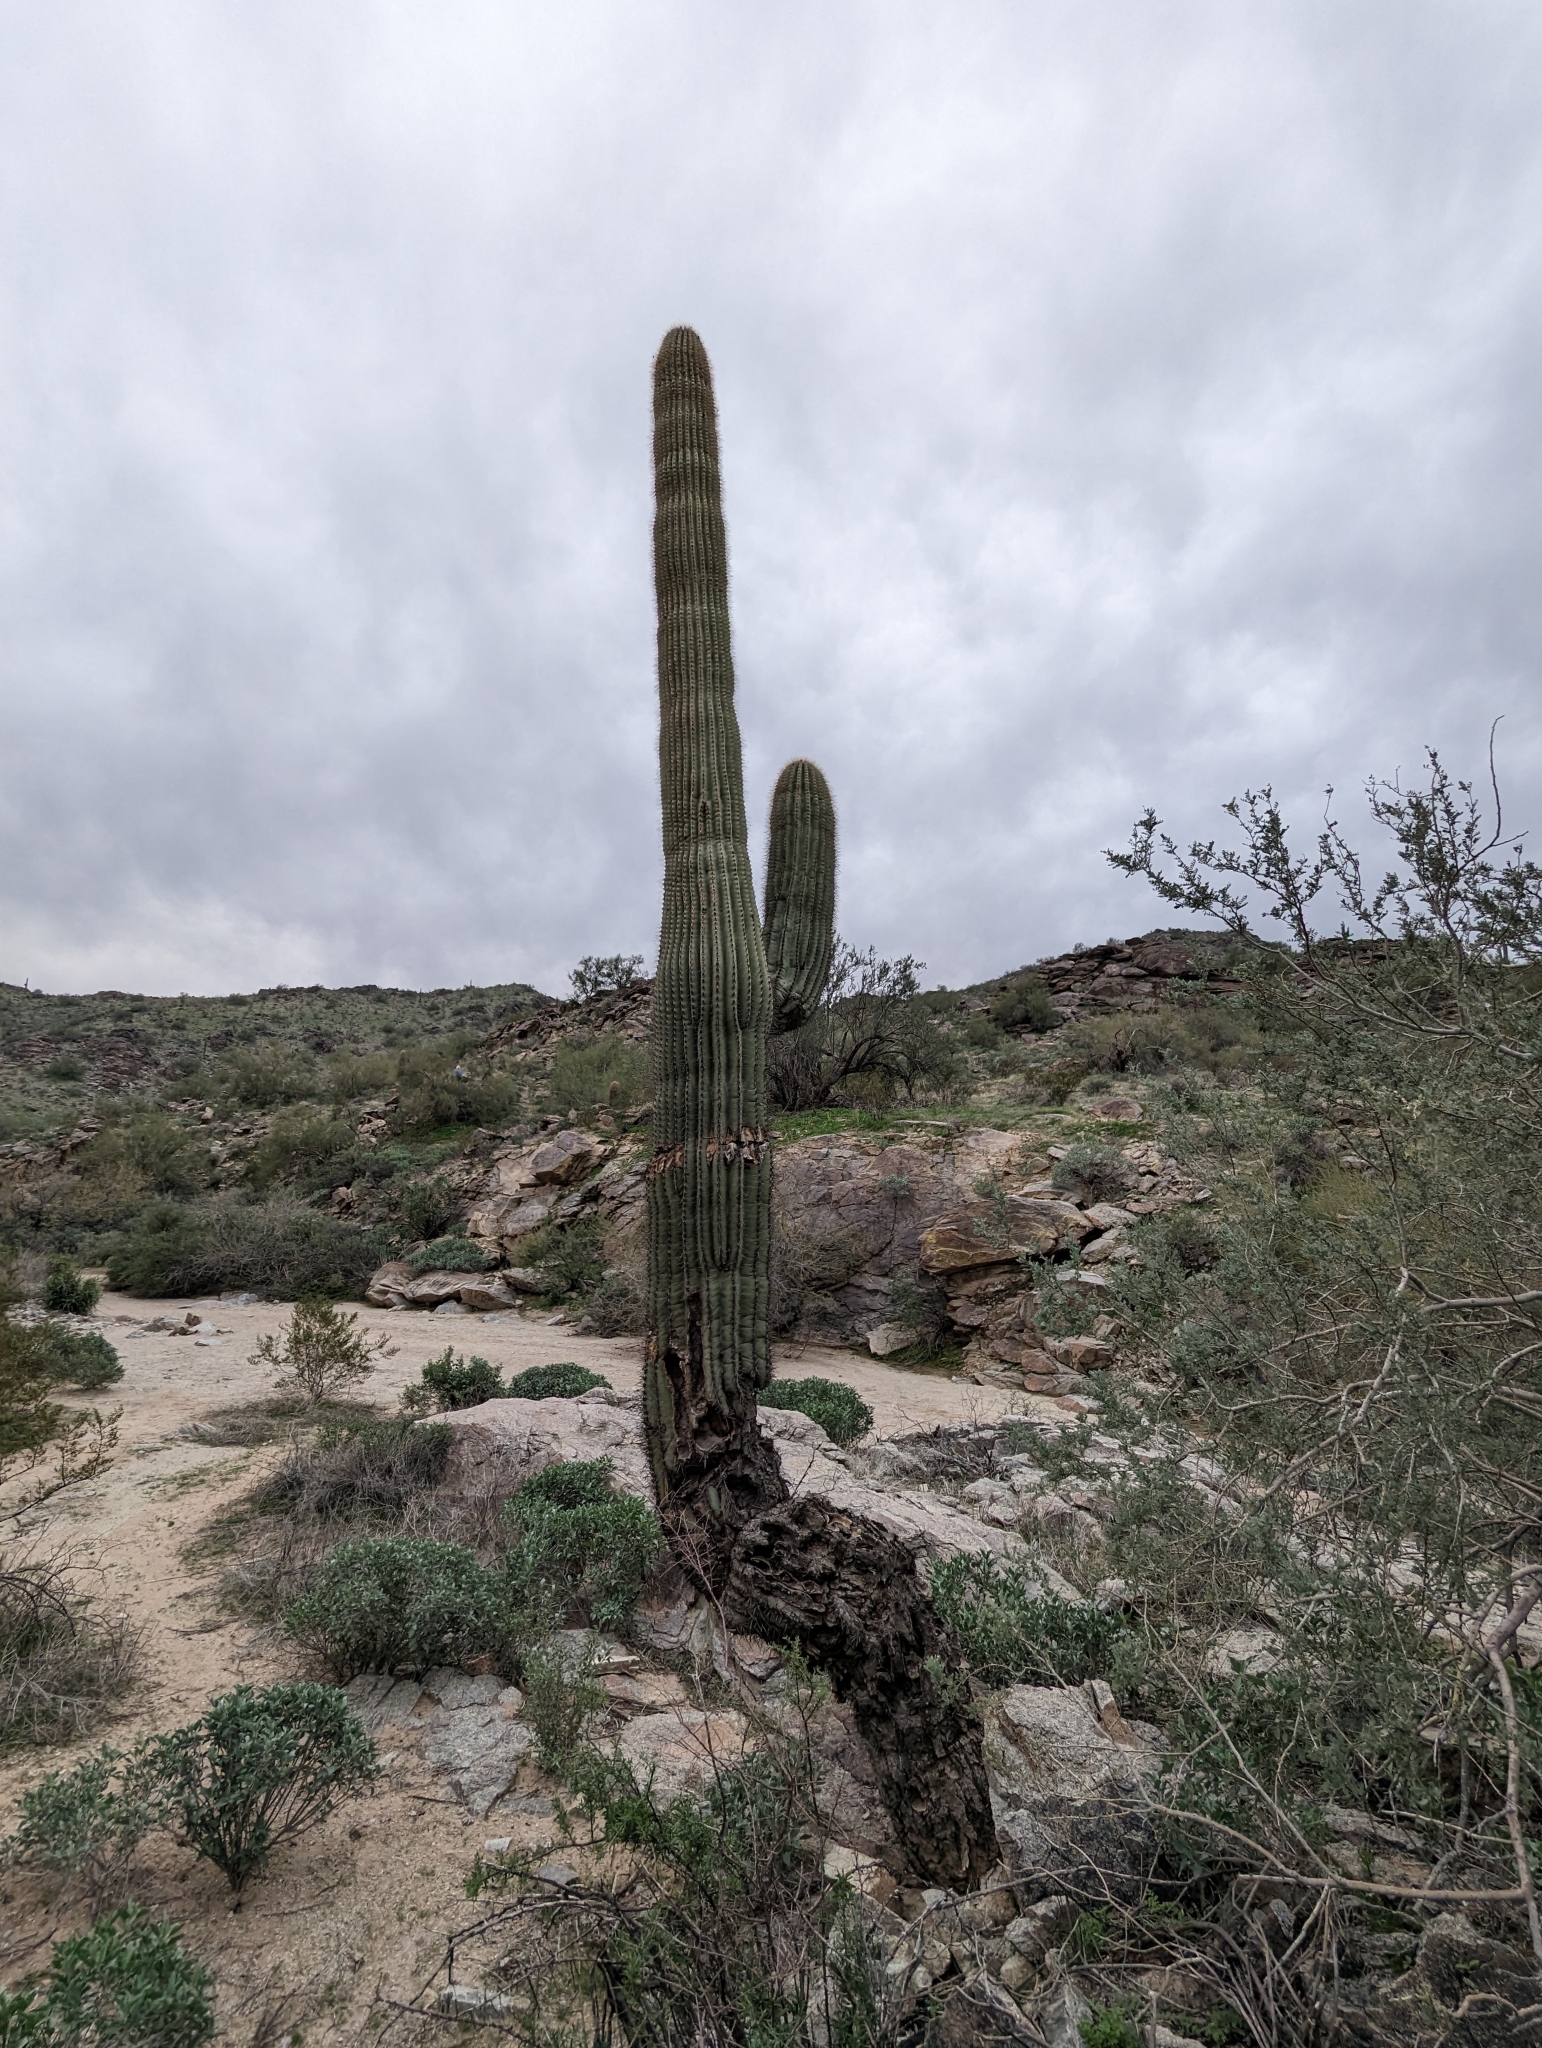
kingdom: Plantae
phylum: Tracheophyta
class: Magnoliopsida
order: Caryophyllales
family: Cactaceae
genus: Carnegiea
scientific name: Carnegiea gigantea
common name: Saguaro
